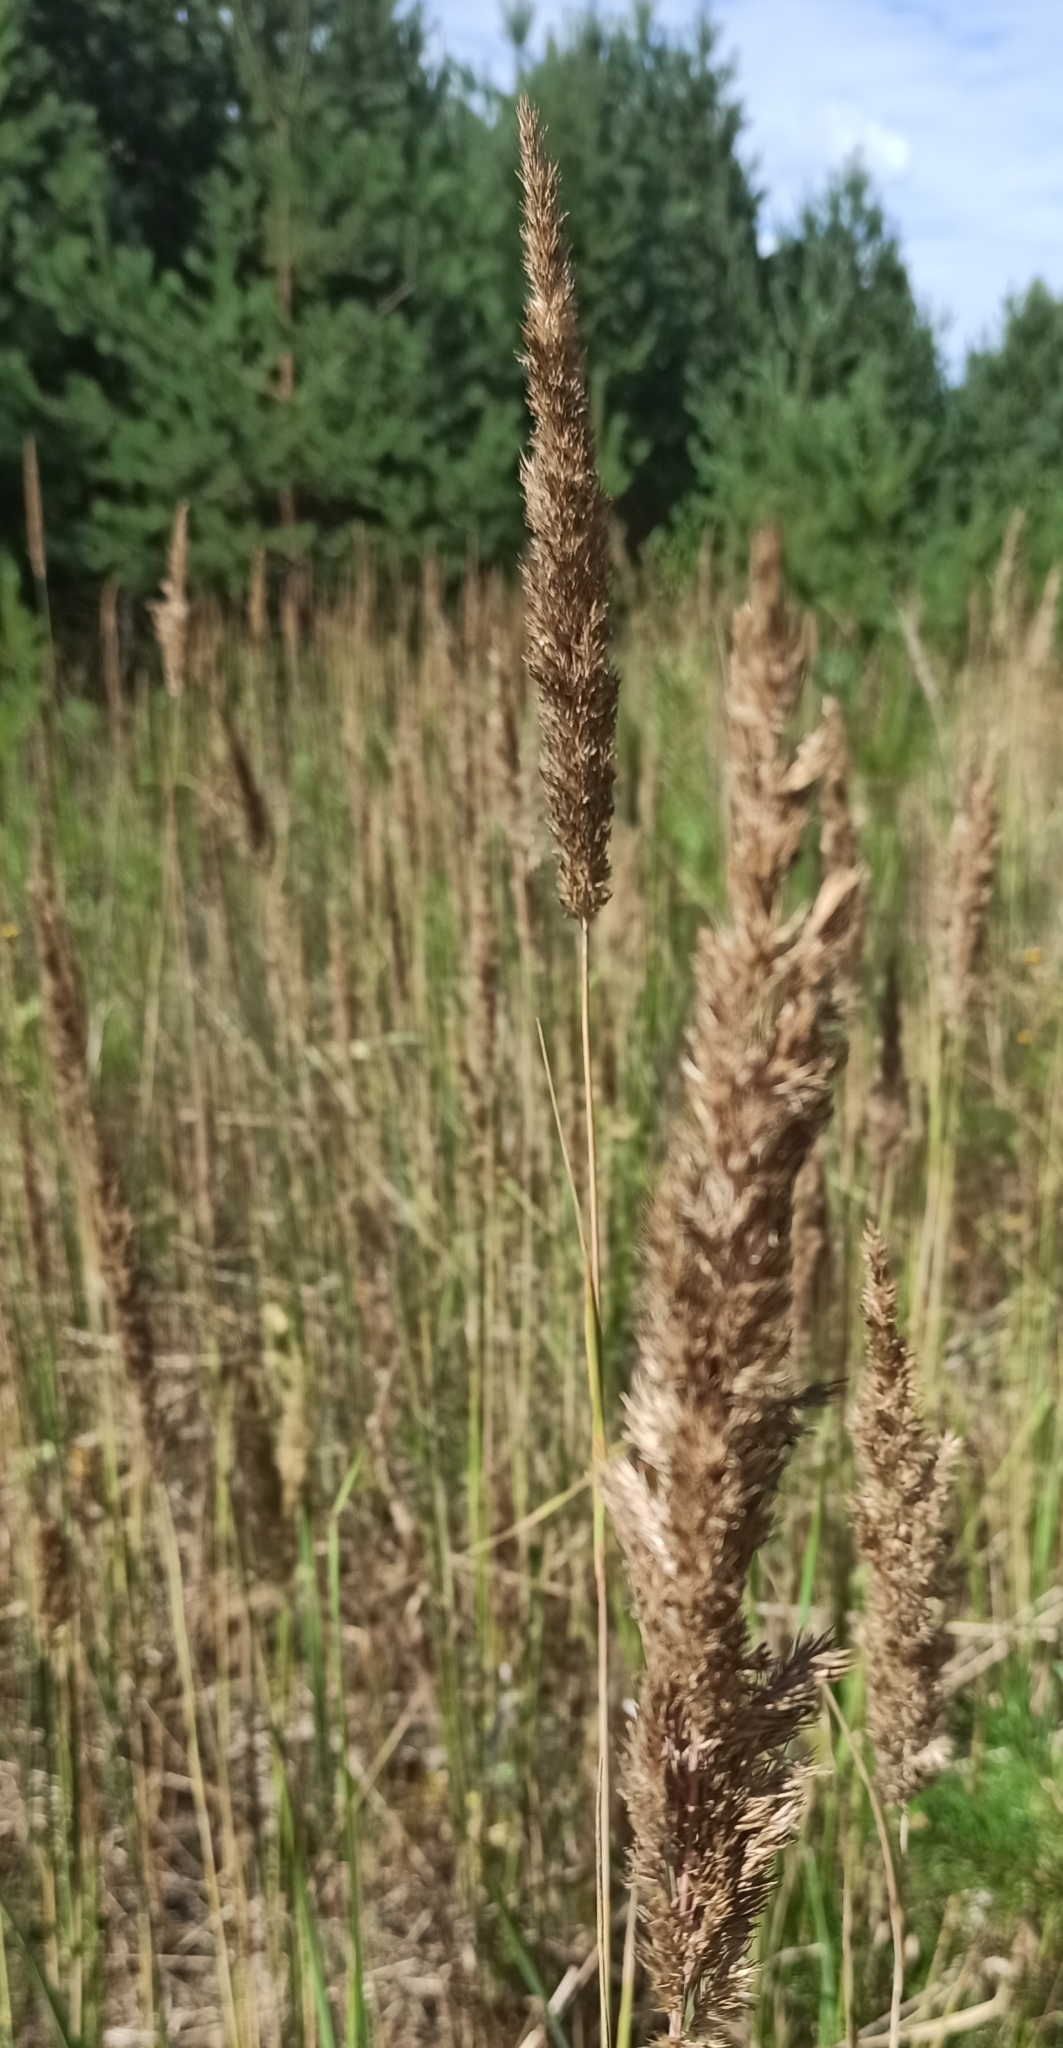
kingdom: Plantae
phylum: Tracheophyta
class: Liliopsida
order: Poales
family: Poaceae
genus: Calamagrostis
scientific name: Calamagrostis epigejos
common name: Wood small-reed
